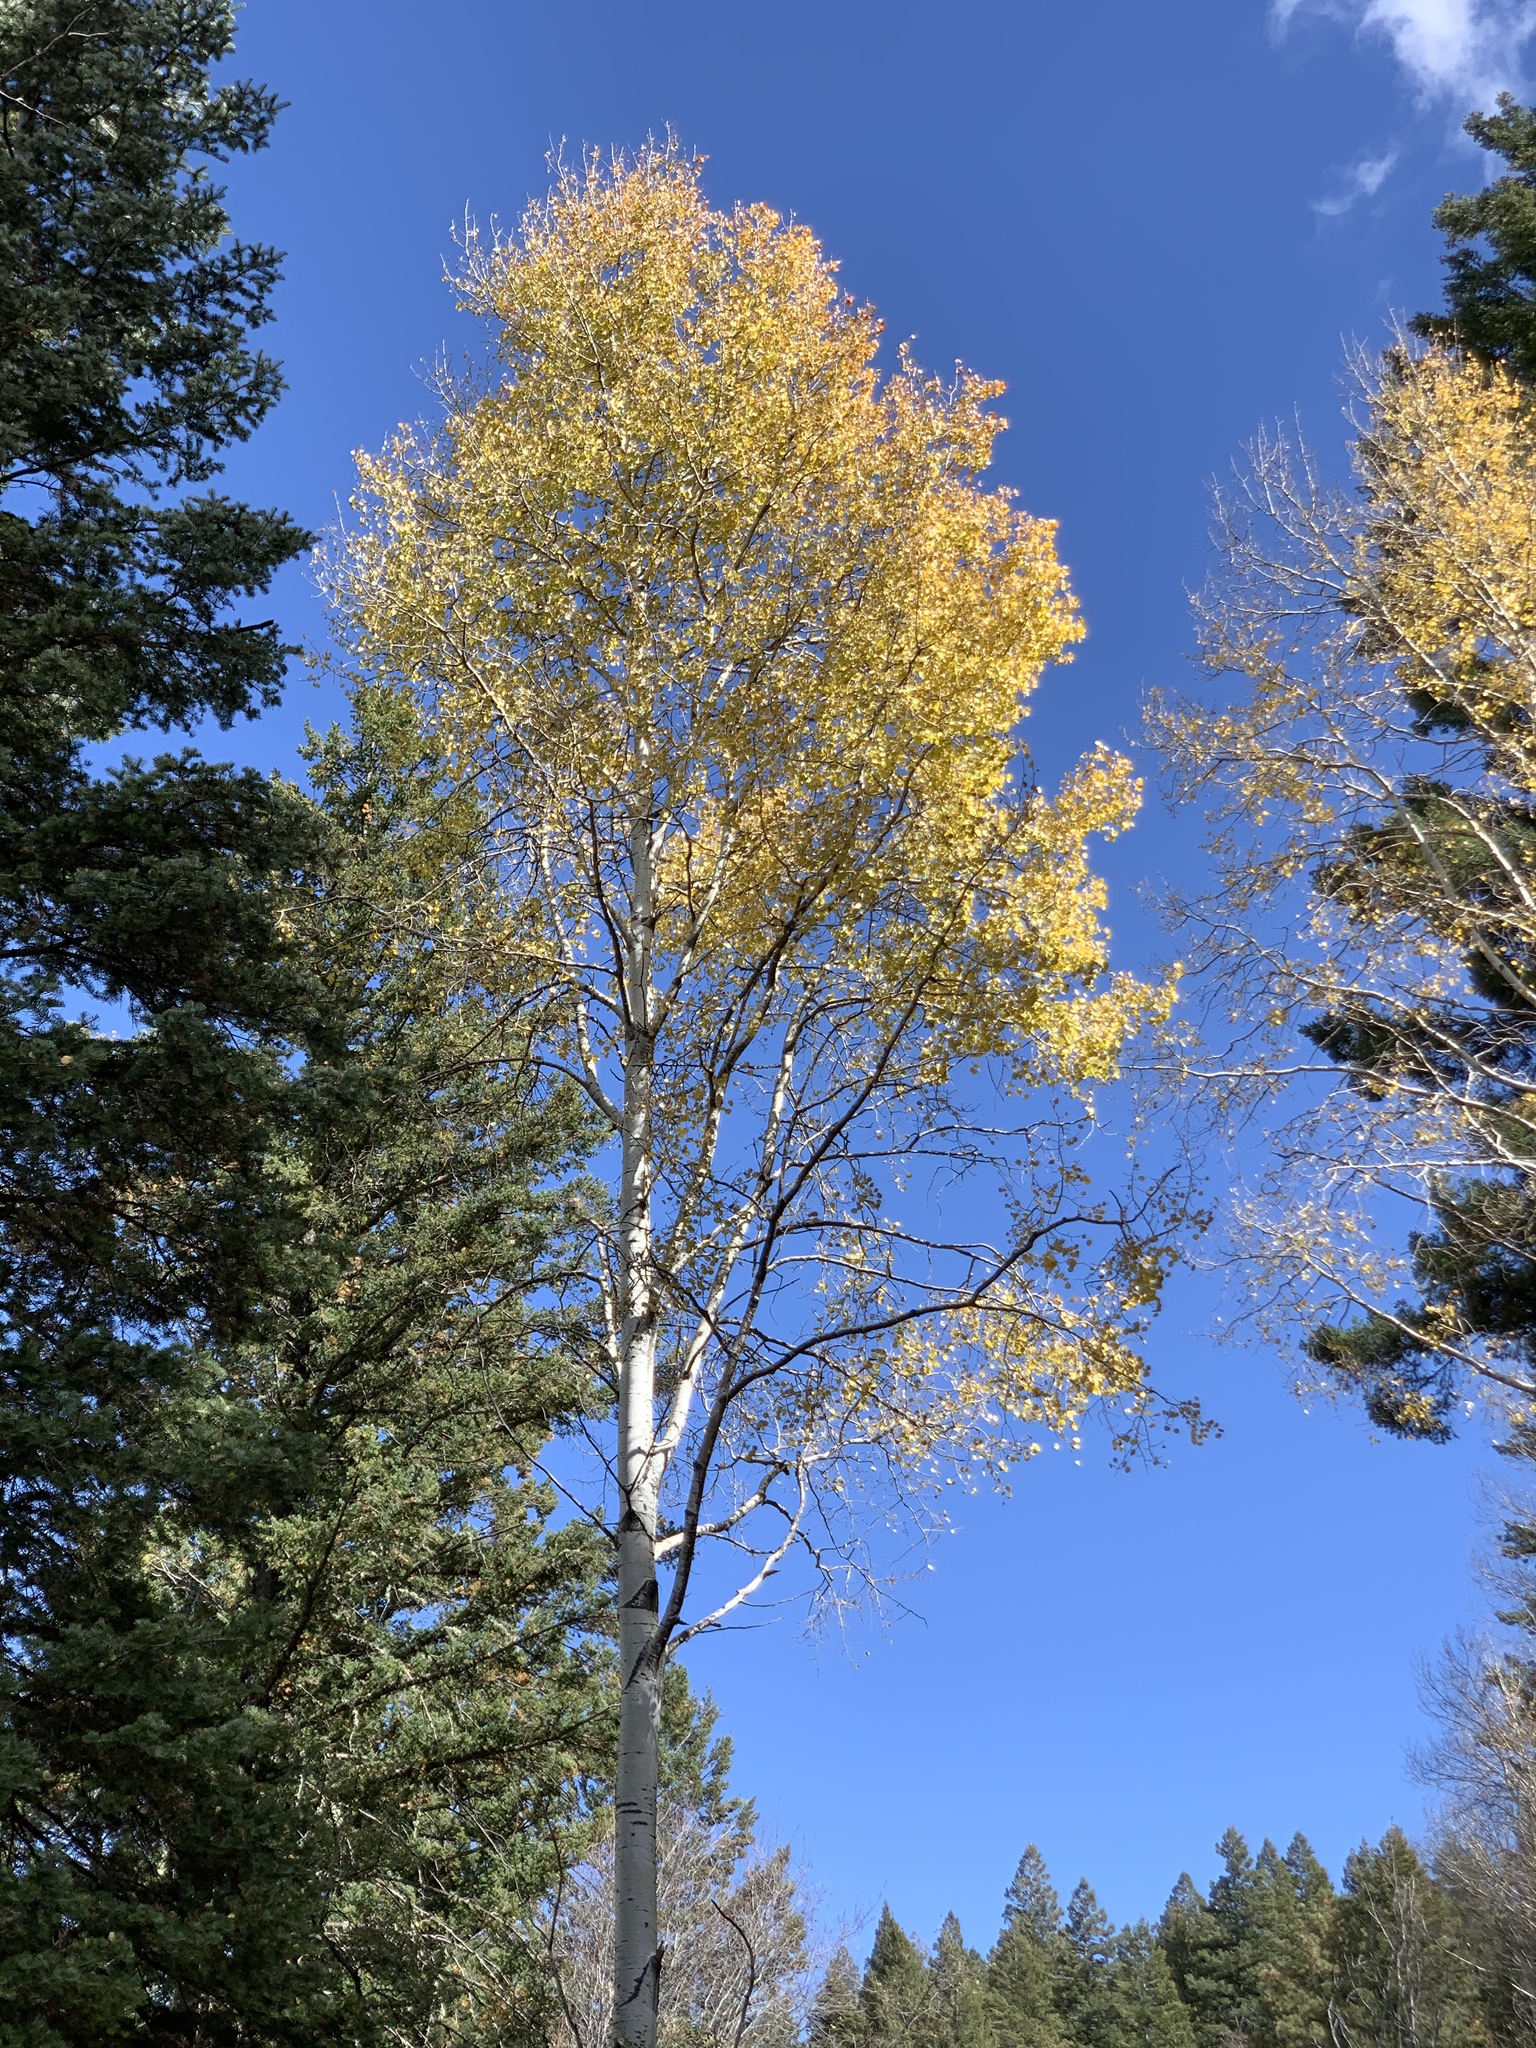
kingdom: Plantae
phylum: Tracheophyta
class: Magnoliopsida
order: Malpighiales
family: Salicaceae
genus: Populus
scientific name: Populus tremuloides
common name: Quaking aspen
